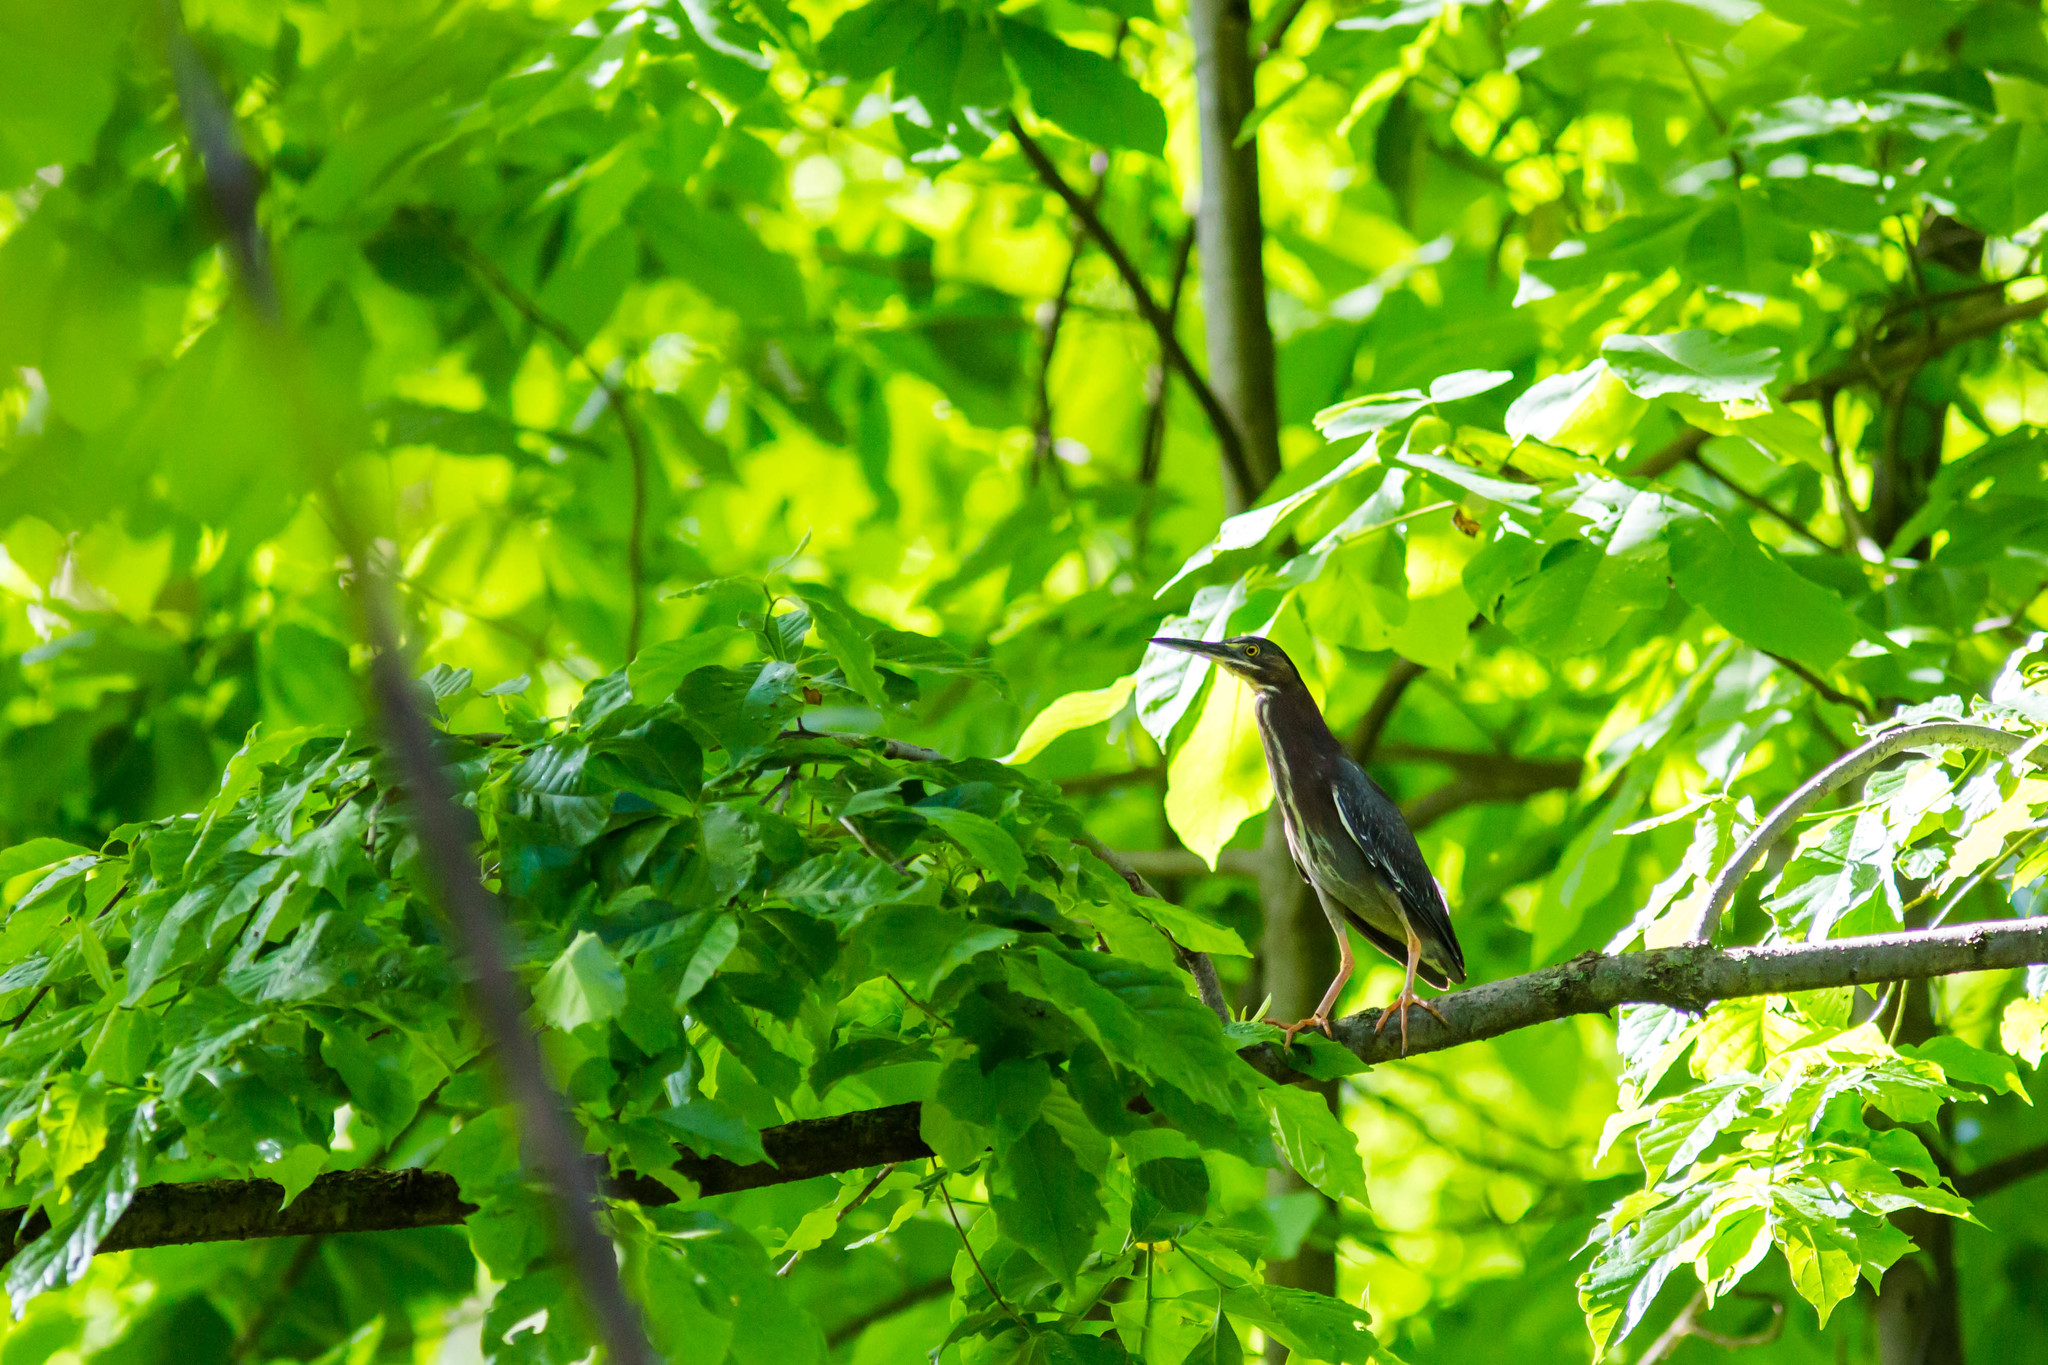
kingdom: Animalia
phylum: Chordata
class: Aves
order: Pelecaniformes
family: Ardeidae
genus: Butorides
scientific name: Butorides virescens
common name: Green heron
